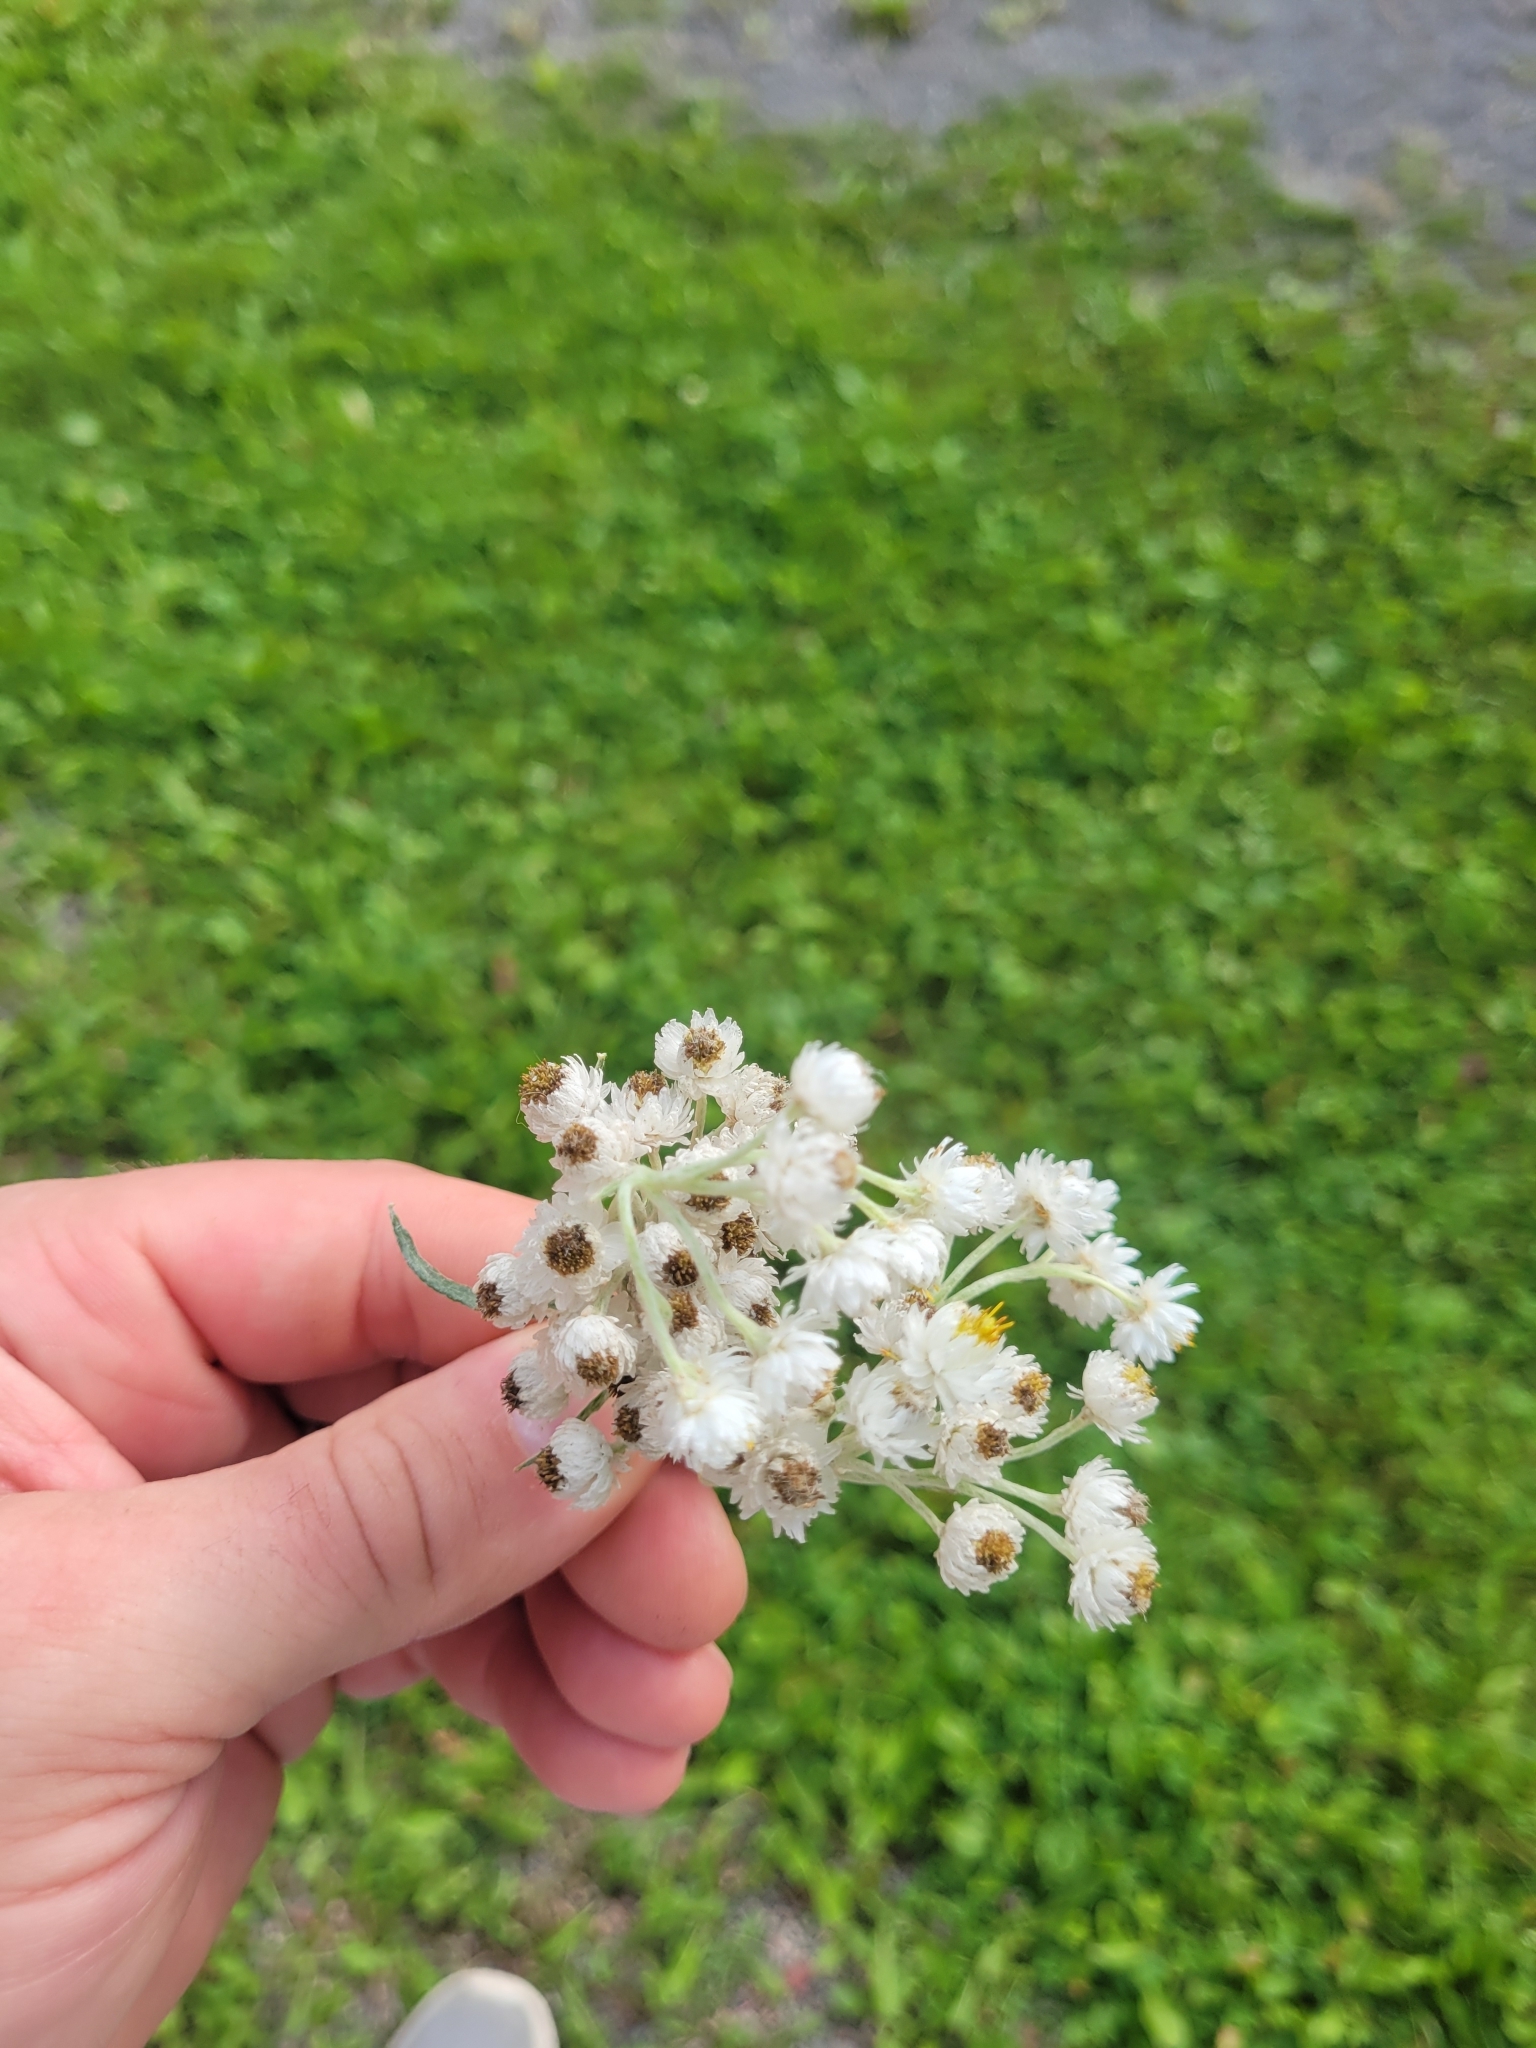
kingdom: Plantae
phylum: Tracheophyta
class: Magnoliopsida
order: Asterales
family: Asteraceae
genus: Anaphalis
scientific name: Anaphalis margaritacea
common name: Pearly everlasting
